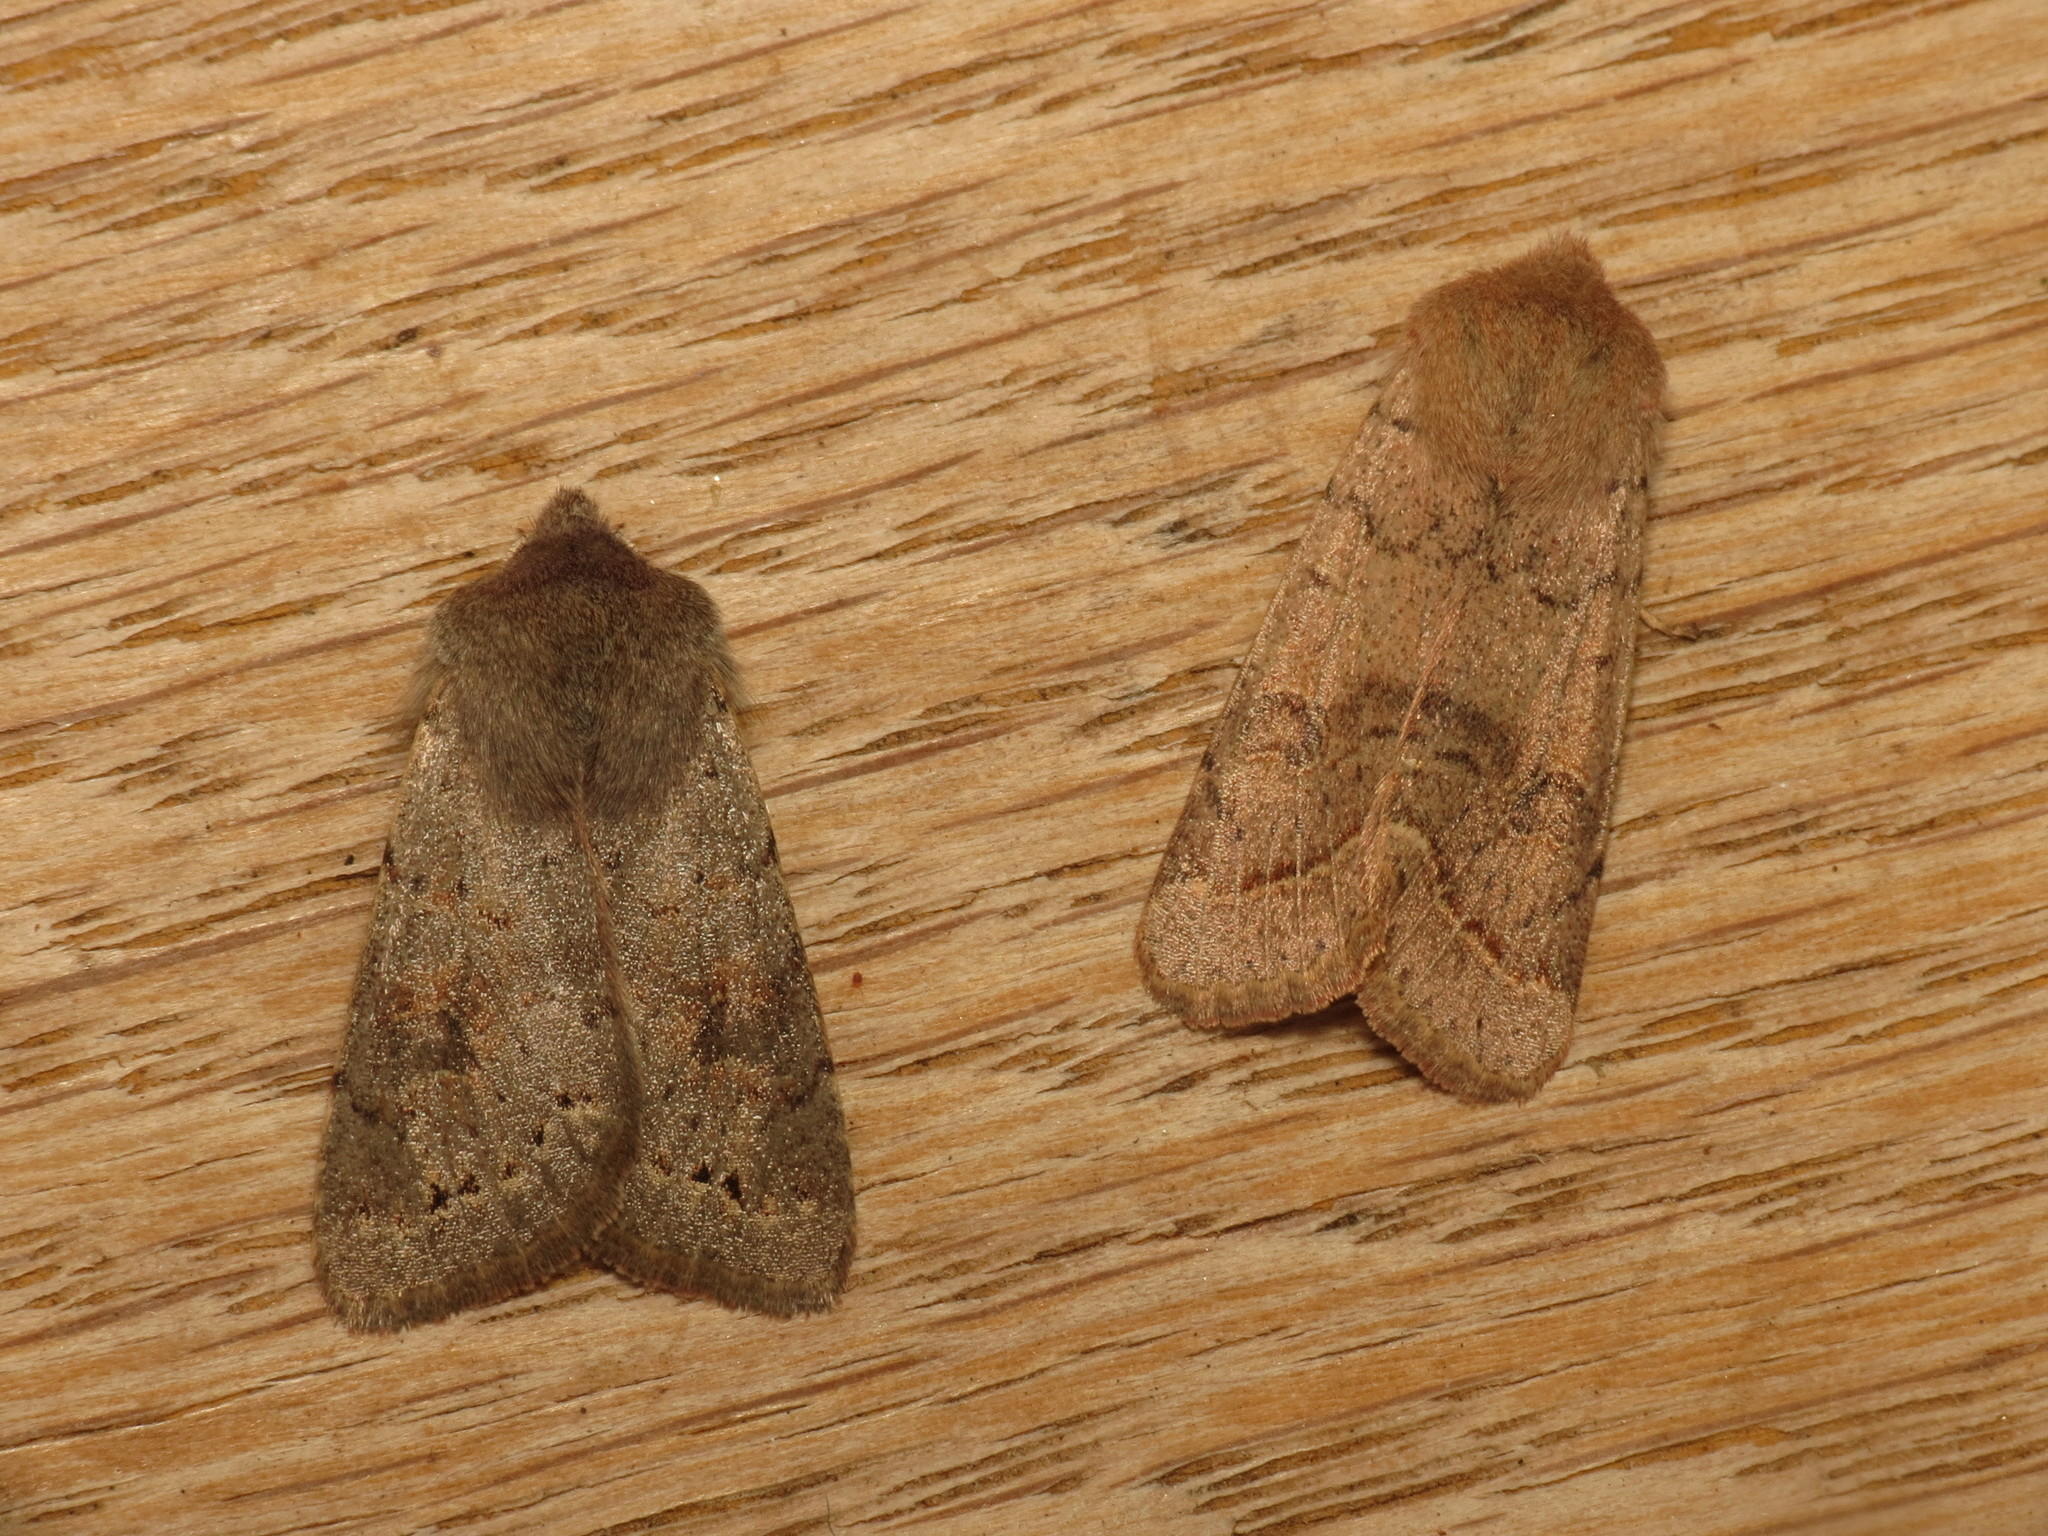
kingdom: Animalia
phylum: Arthropoda
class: Insecta
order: Lepidoptera
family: Noctuidae
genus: Orthosia
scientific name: Orthosia populeti
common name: Lead-coloured drab
